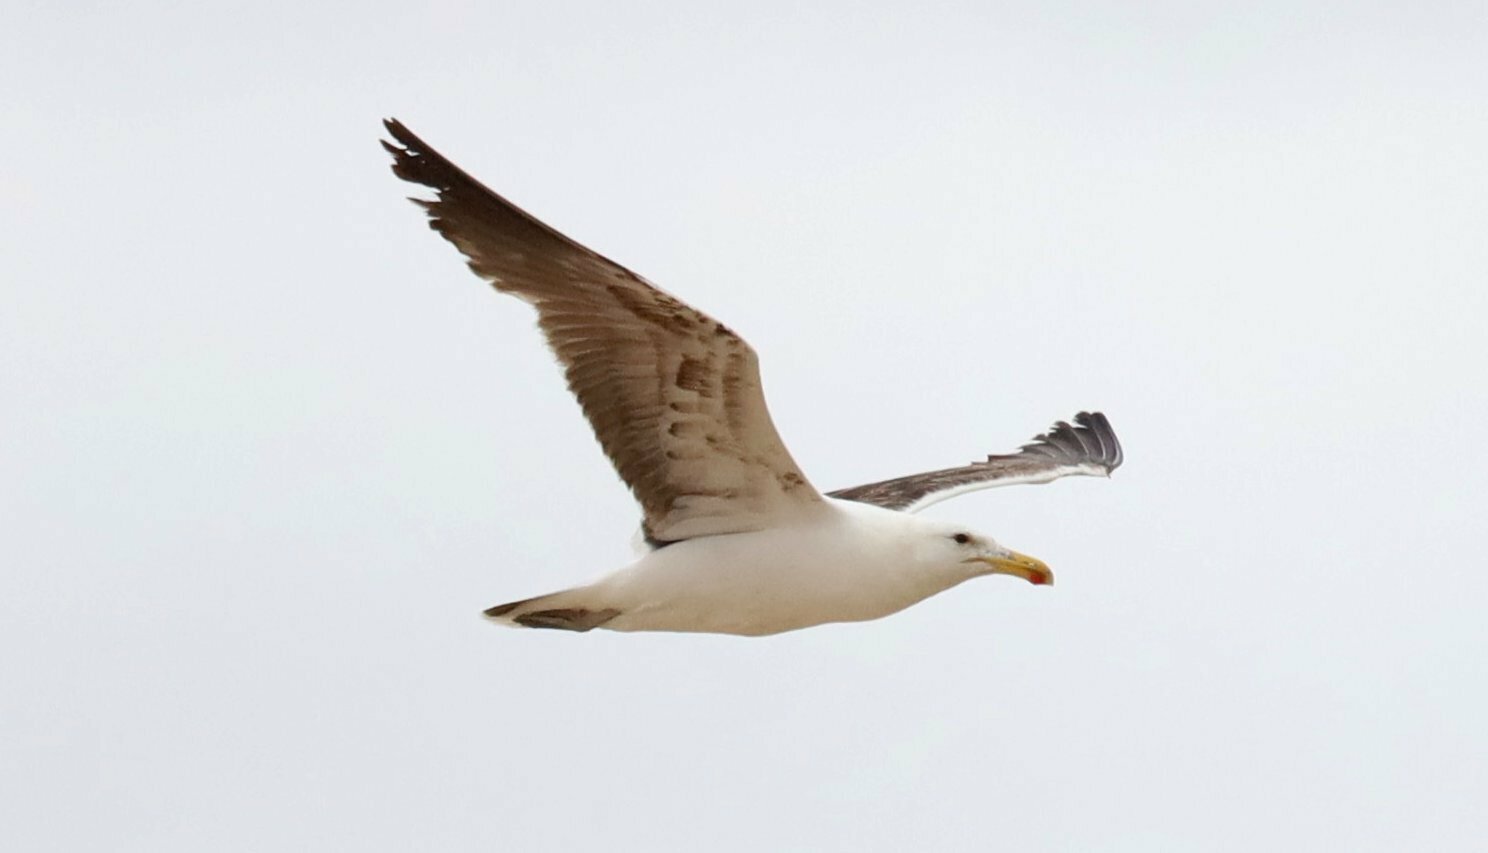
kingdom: Animalia
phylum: Chordata
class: Aves
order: Charadriiformes
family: Laridae
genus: Larus
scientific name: Larus dominicanus
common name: Kelp gull
